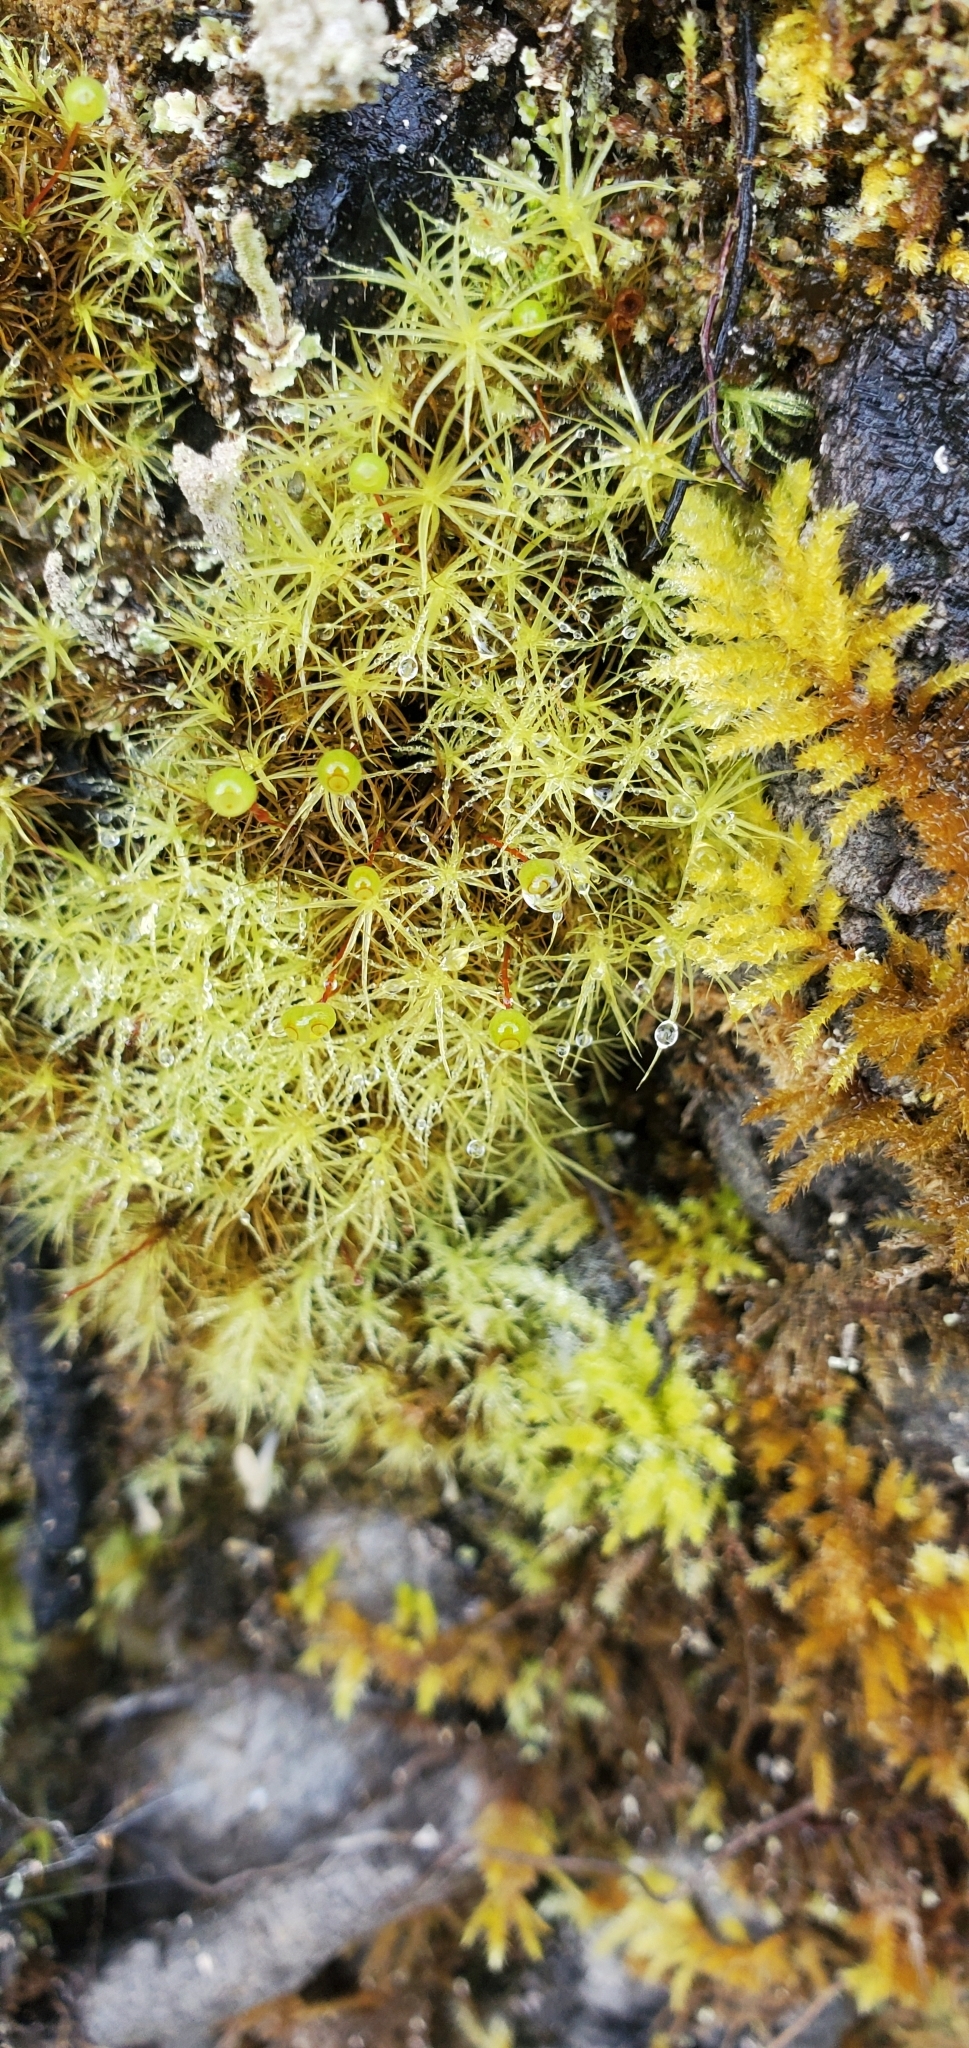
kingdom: Plantae
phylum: Bryophyta
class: Bryopsida
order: Bartramiales
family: Bartramiaceae
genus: Bartramia
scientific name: Bartramia ithyphylla
